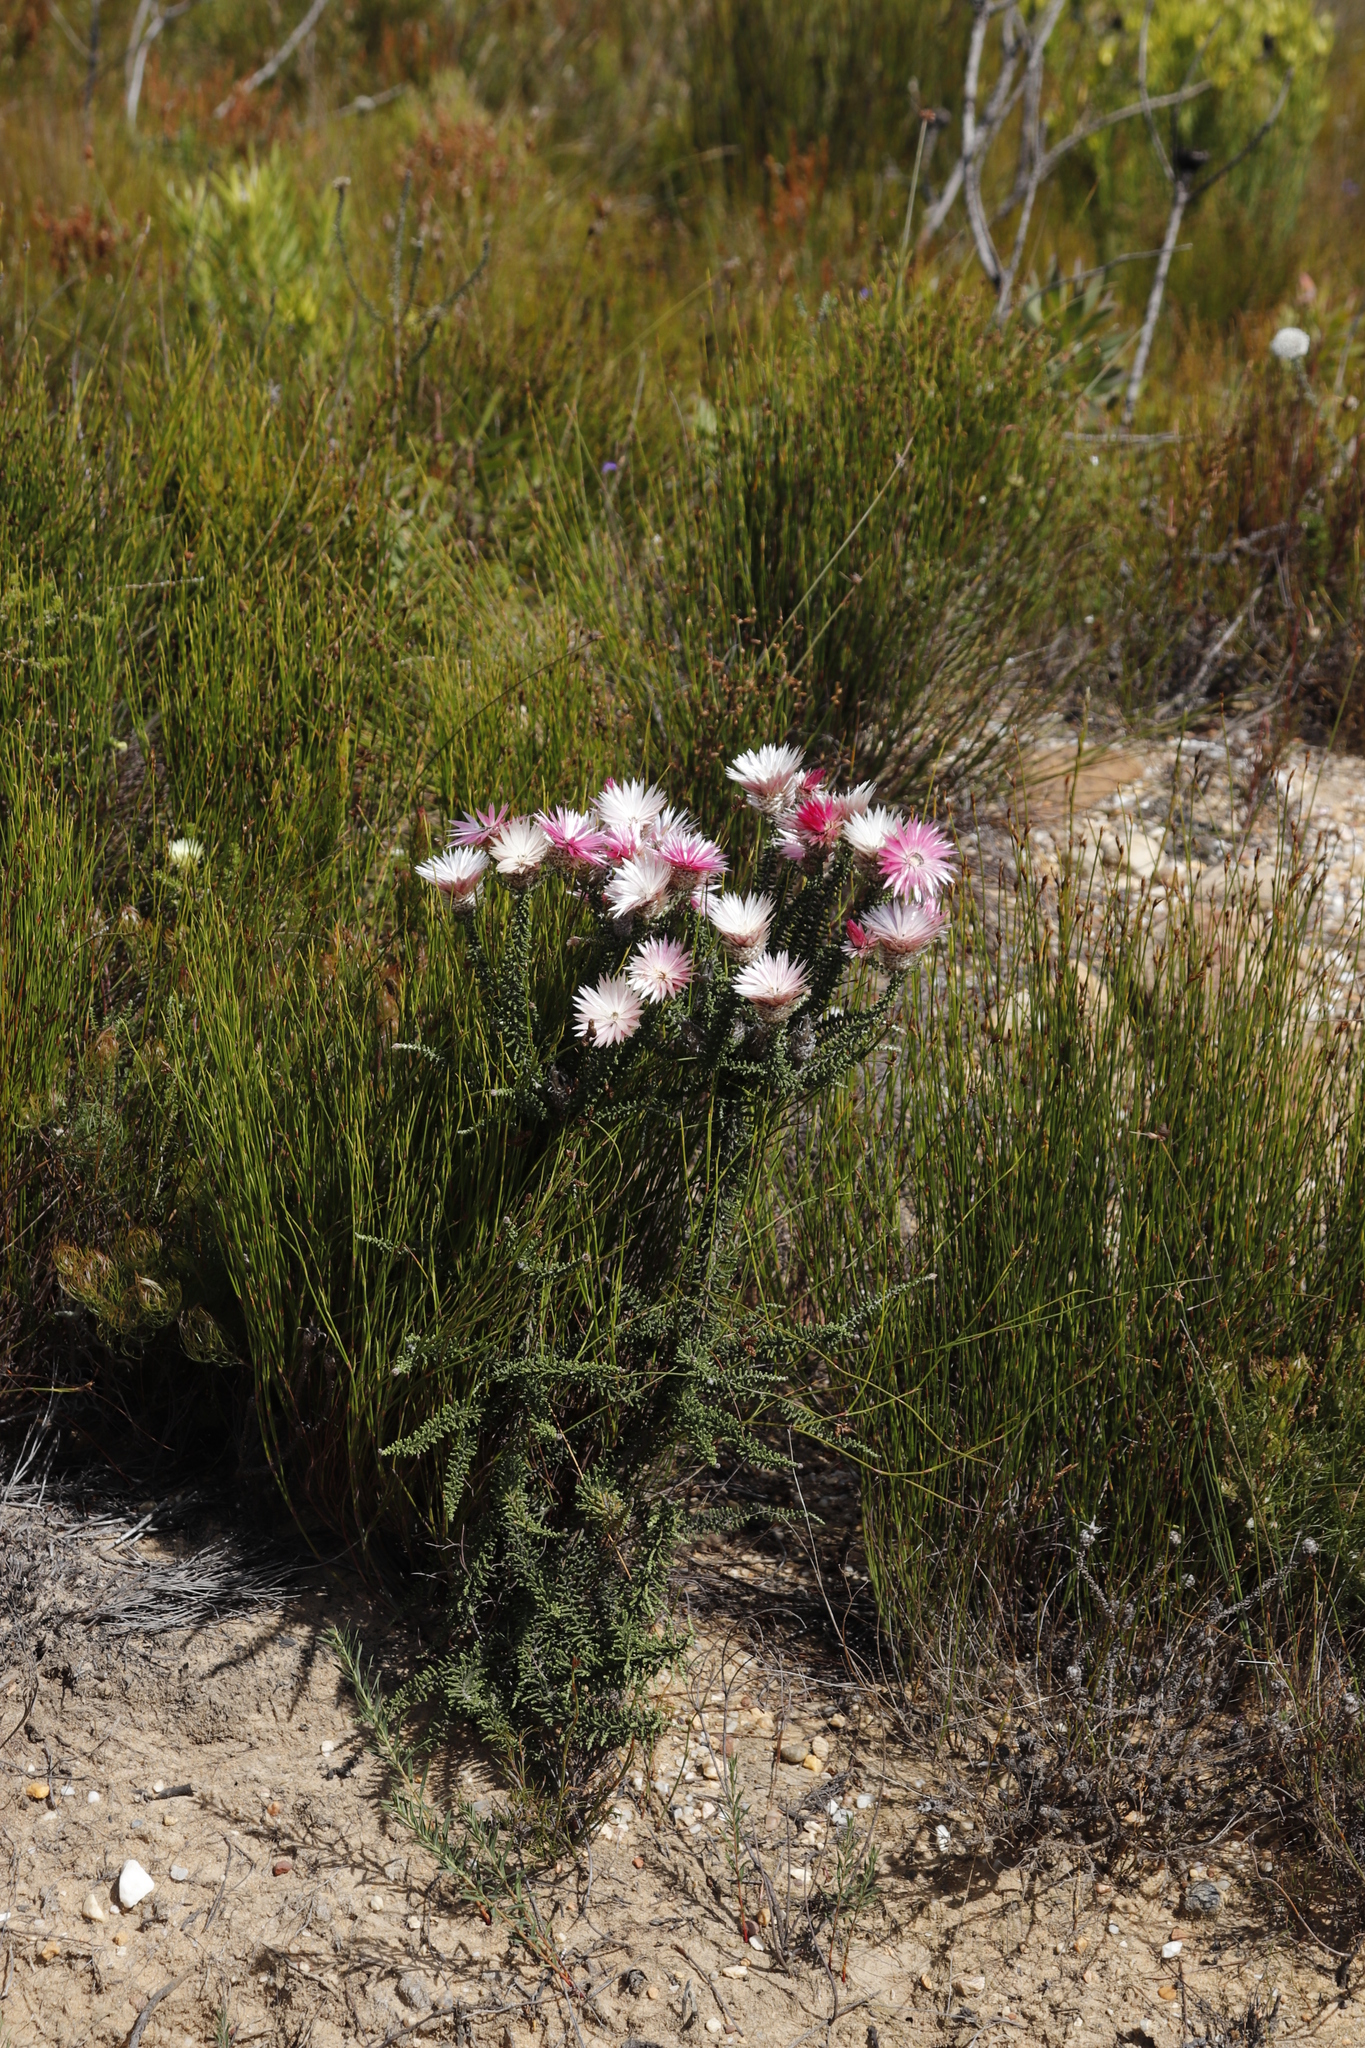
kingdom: Plantae
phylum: Tracheophyta
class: Magnoliopsida
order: Asterales
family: Asteraceae
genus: Phaenocoma
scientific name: Phaenocoma prolifera
